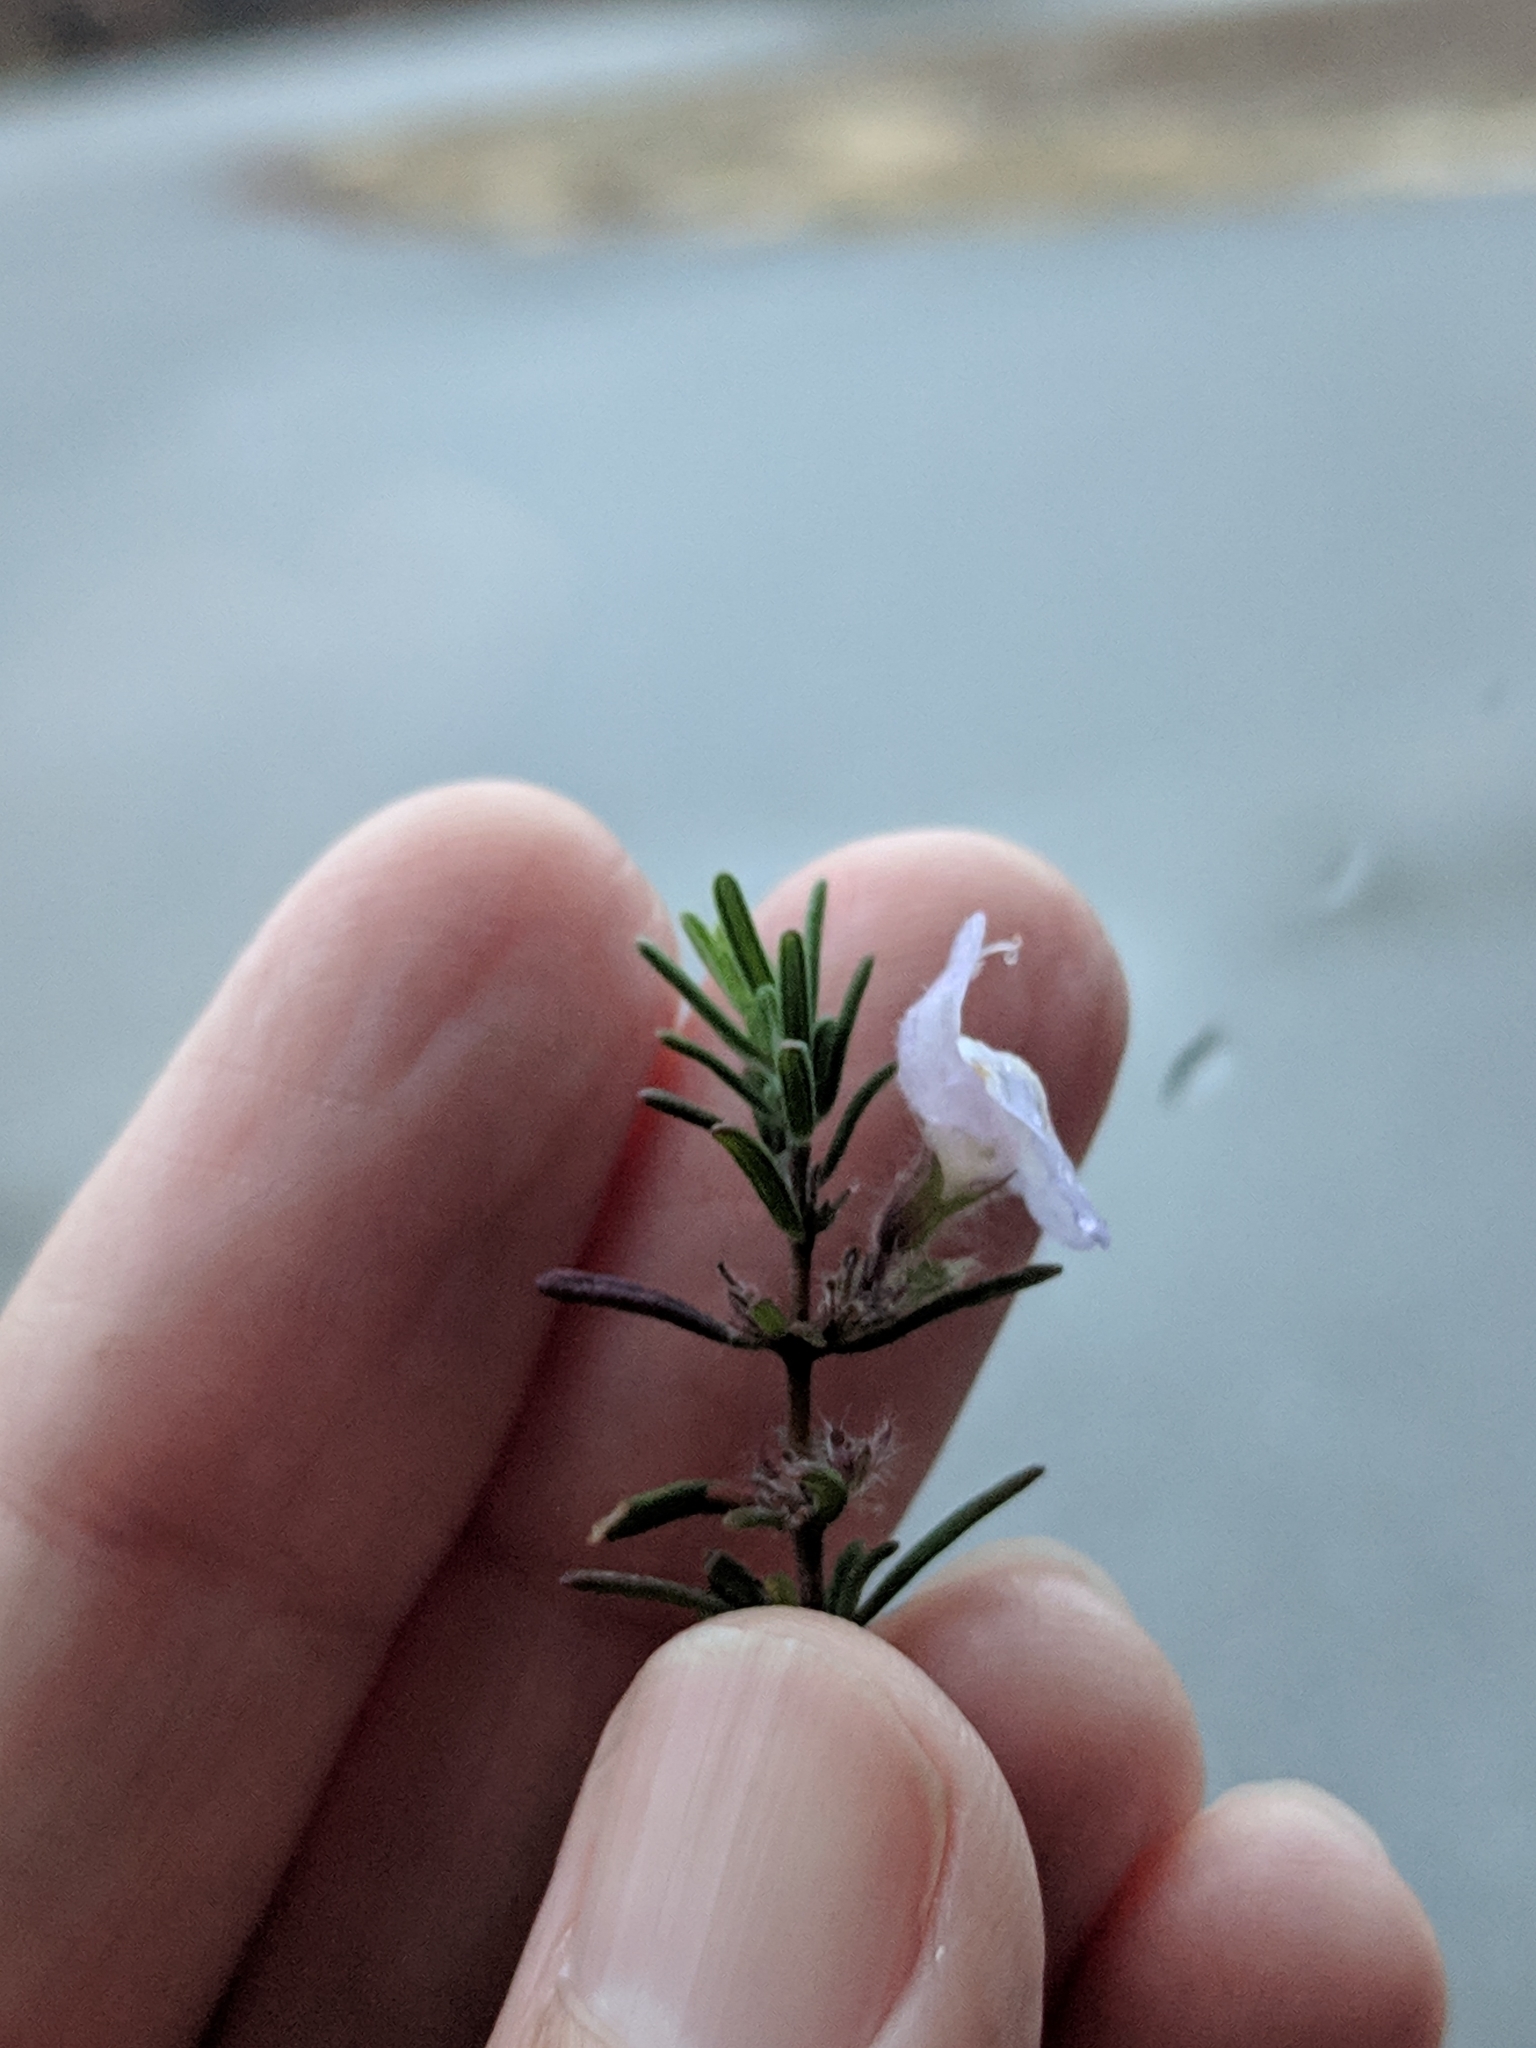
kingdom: Plantae
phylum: Tracheophyta
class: Magnoliopsida
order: Lamiales
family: Lamiaceae
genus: Conradina
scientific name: Conradina canescens
